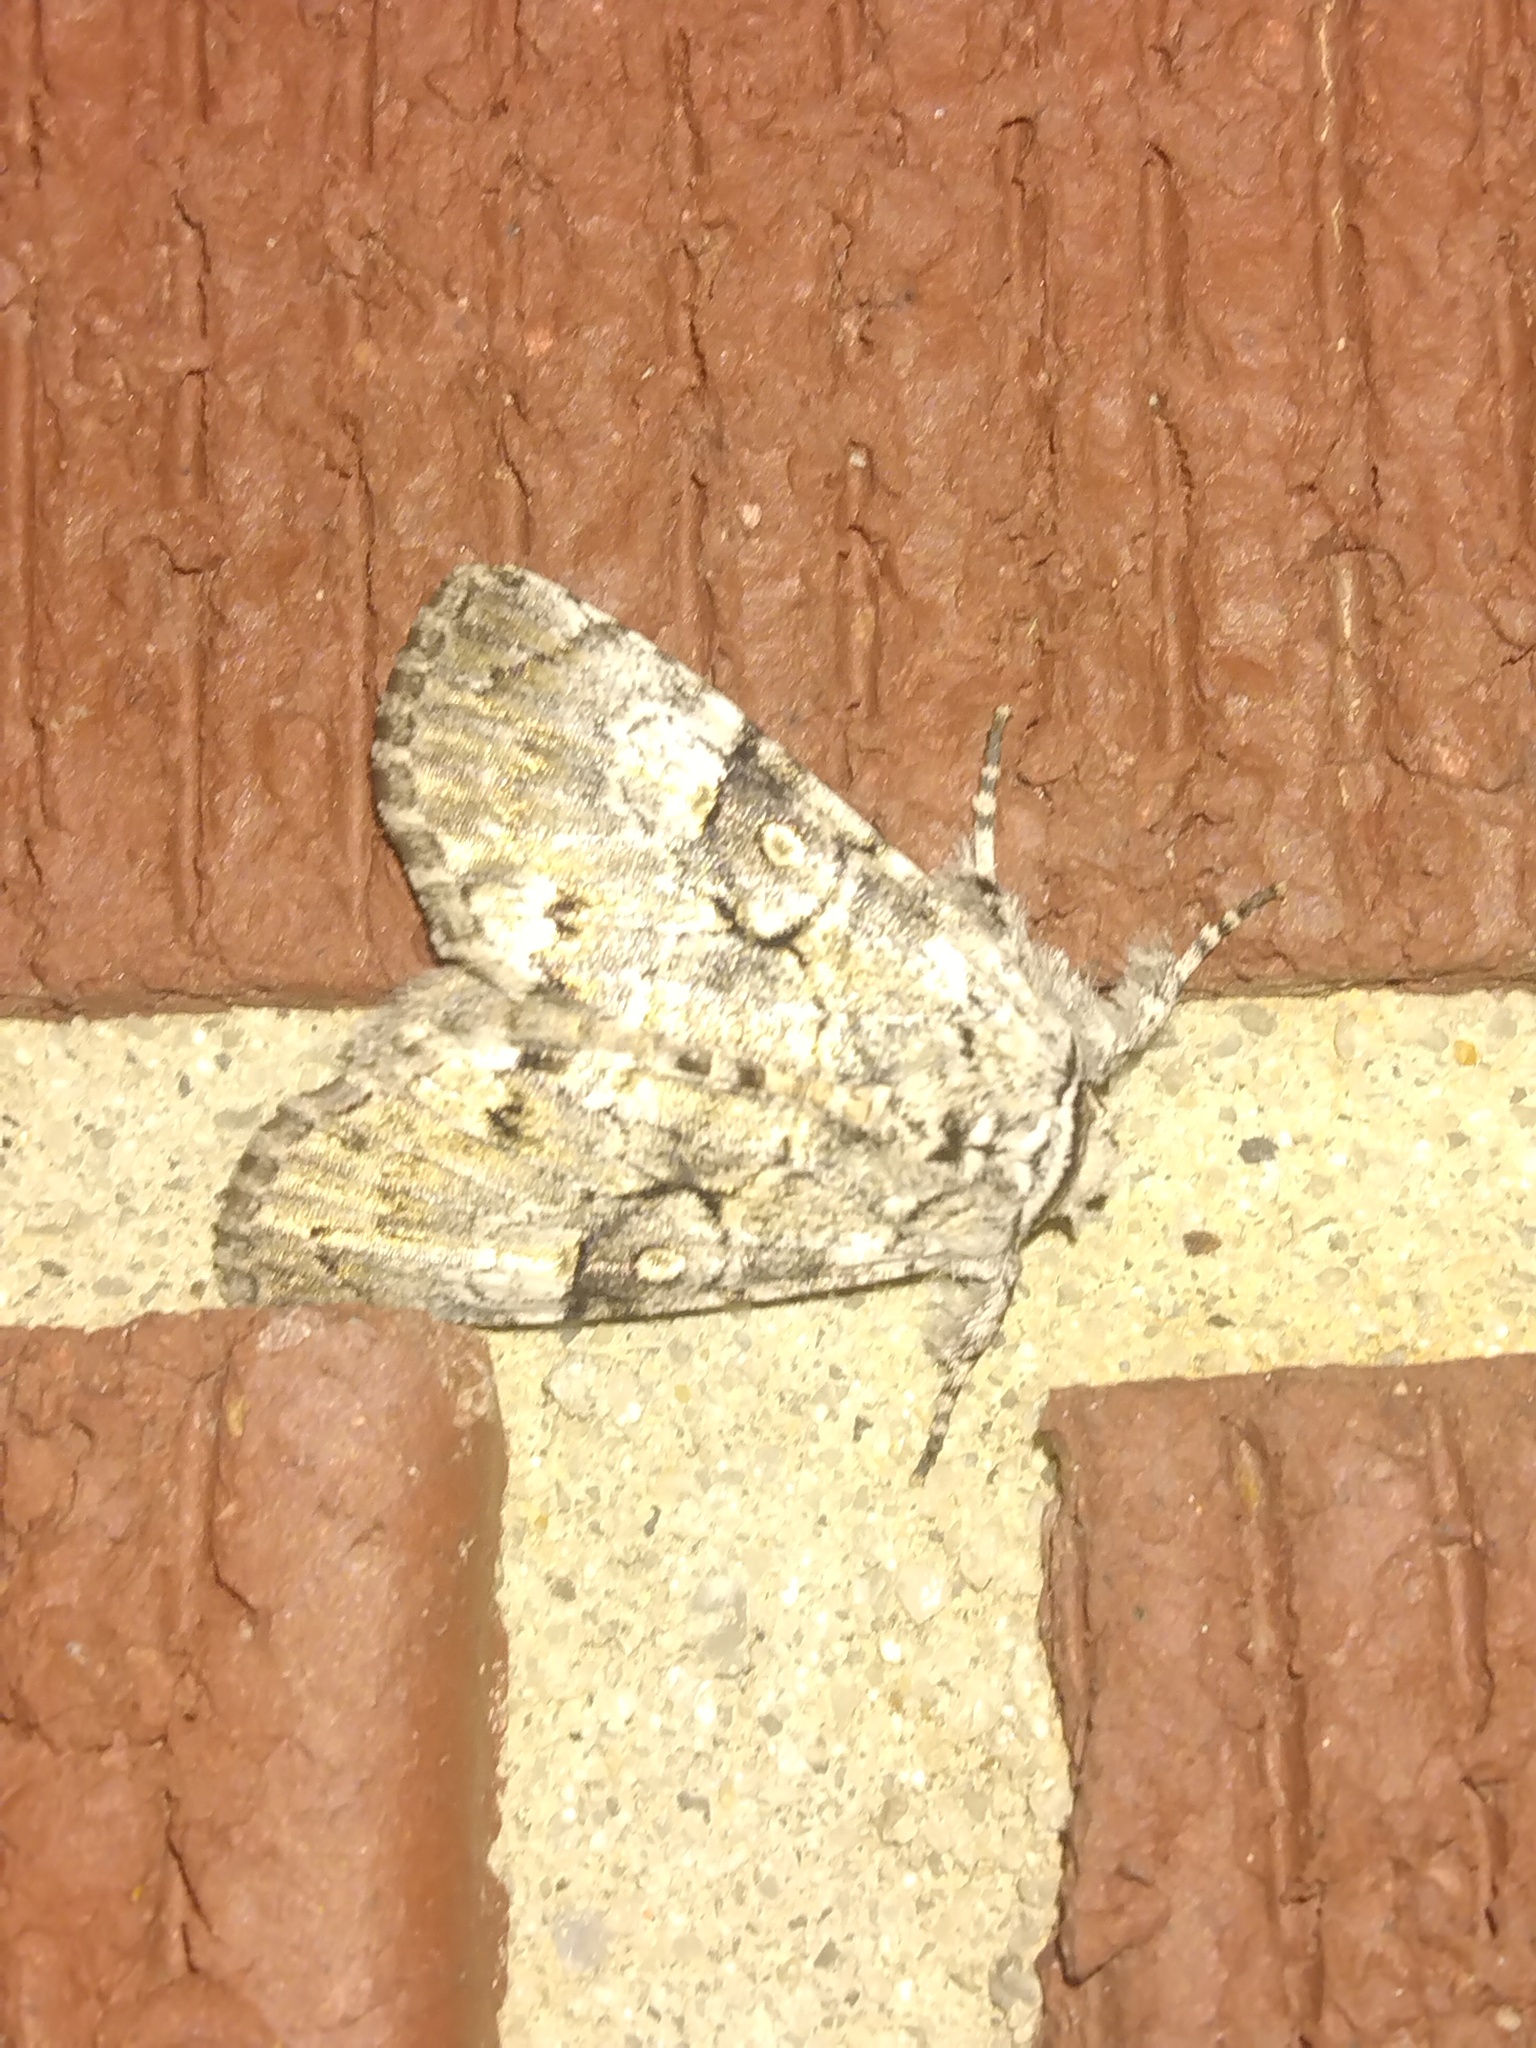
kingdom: Animalia
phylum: Arthropoda
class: Insecta
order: Lepidoptera
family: Noctuidae
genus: Charadra
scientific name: Charadra deridens
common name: Marbled tuffet
